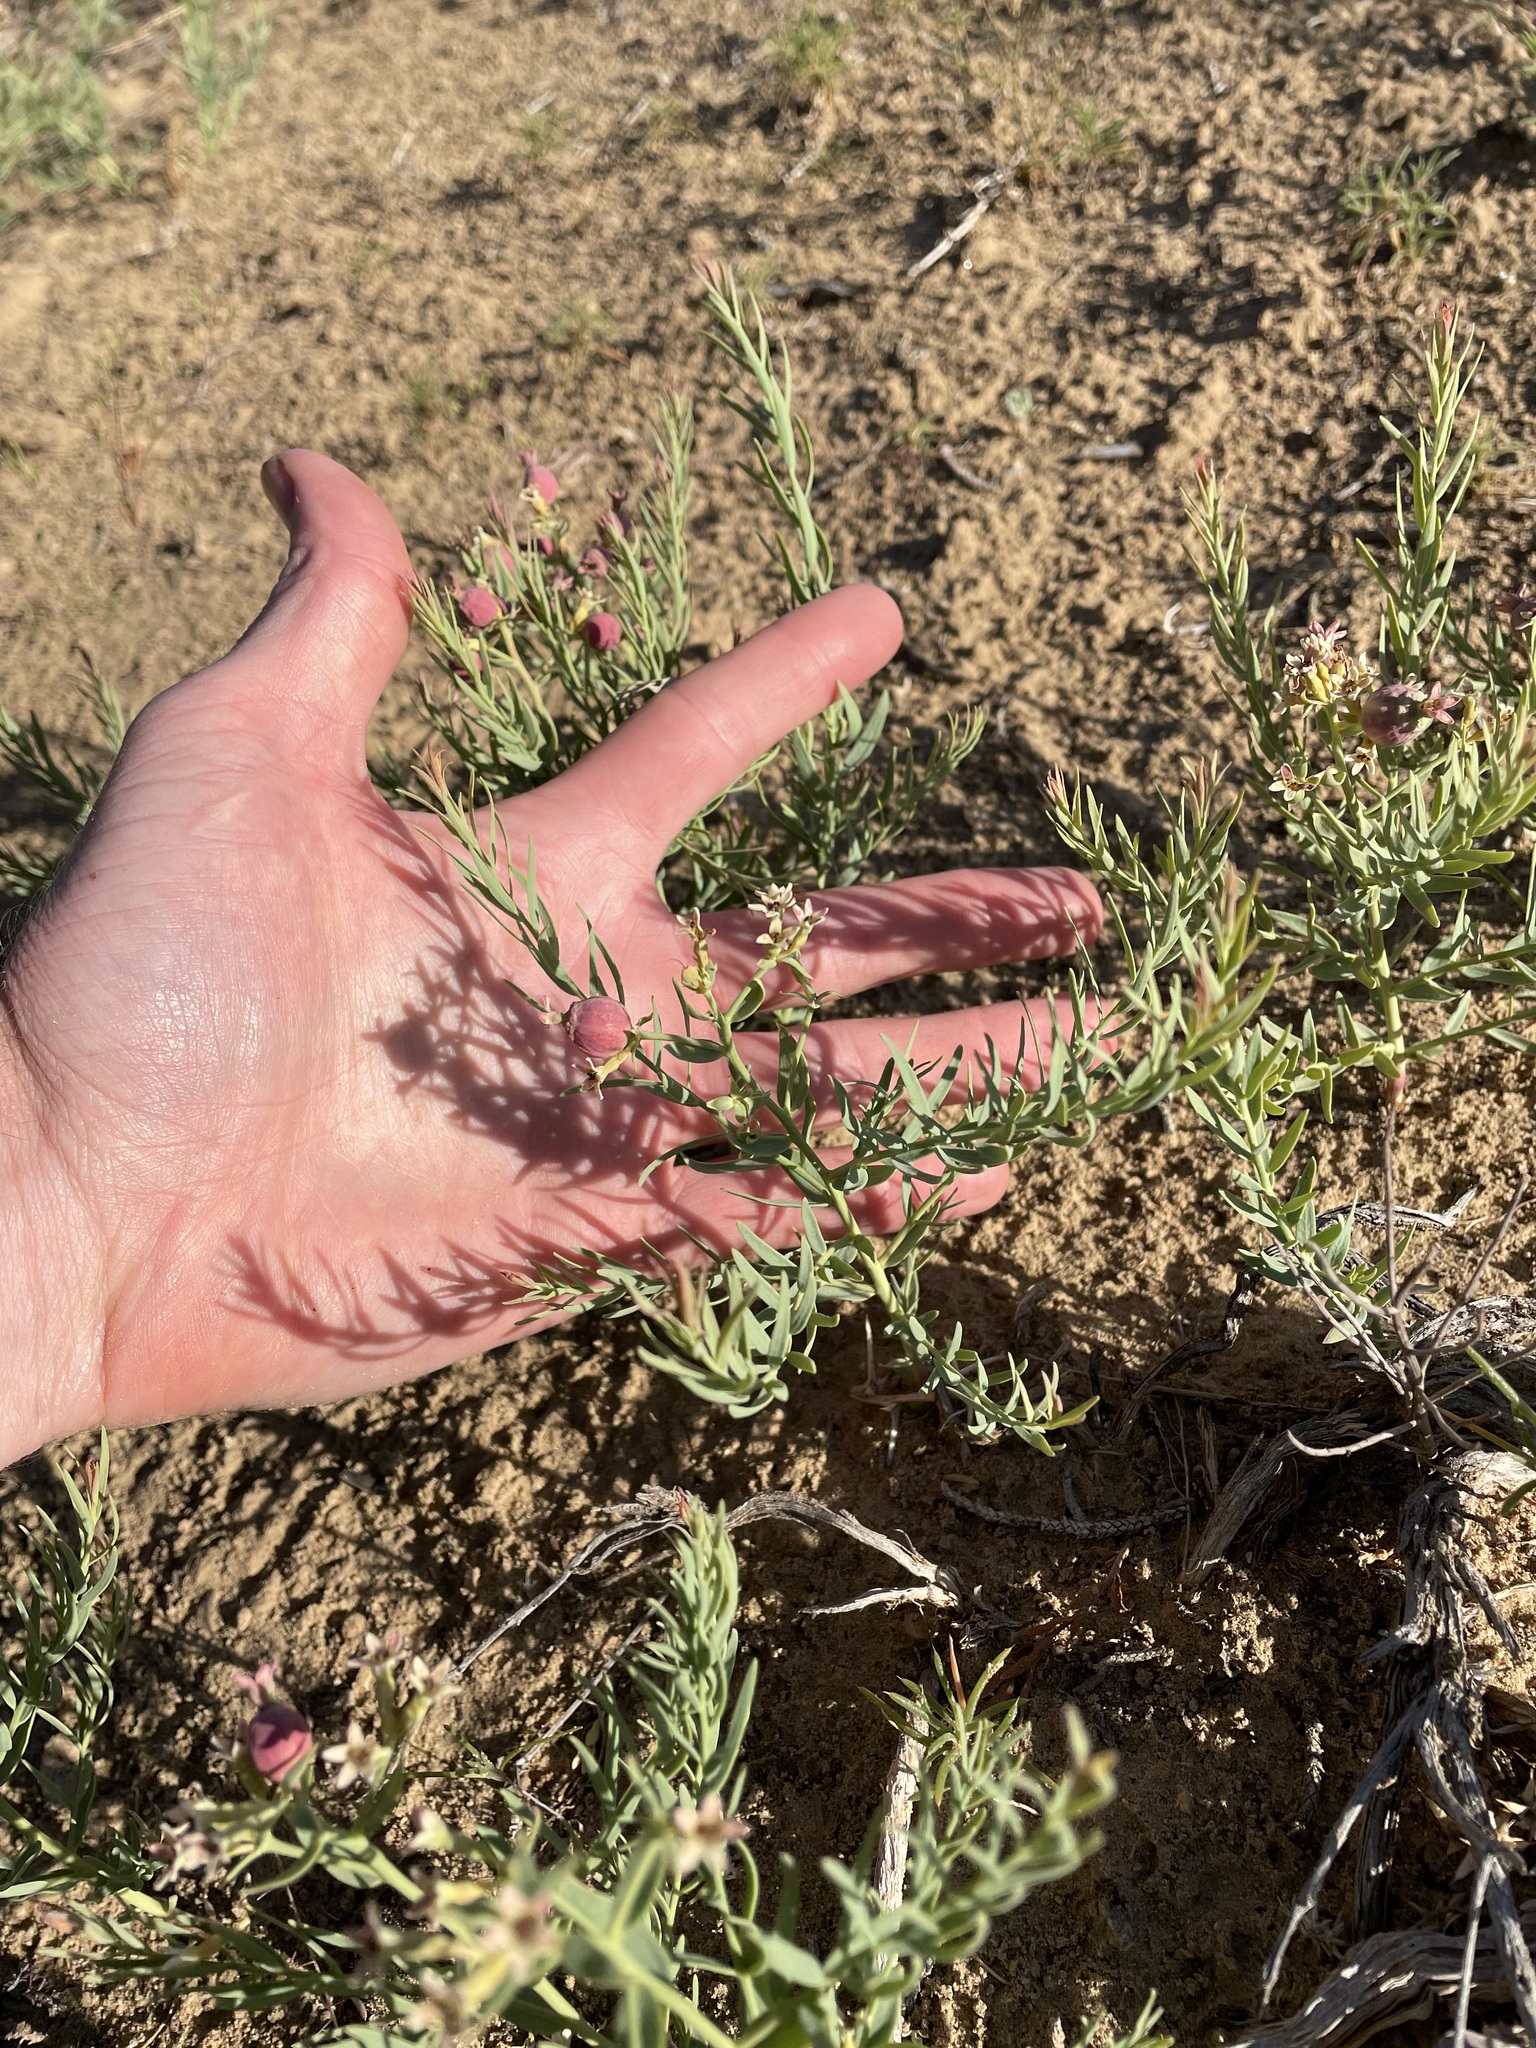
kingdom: Plantae
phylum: Tracheophyta
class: Magnoliopsida
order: Santalales
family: Comandraceae
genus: Comandra
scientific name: Comandra umbellata
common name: Bastard toadflax
